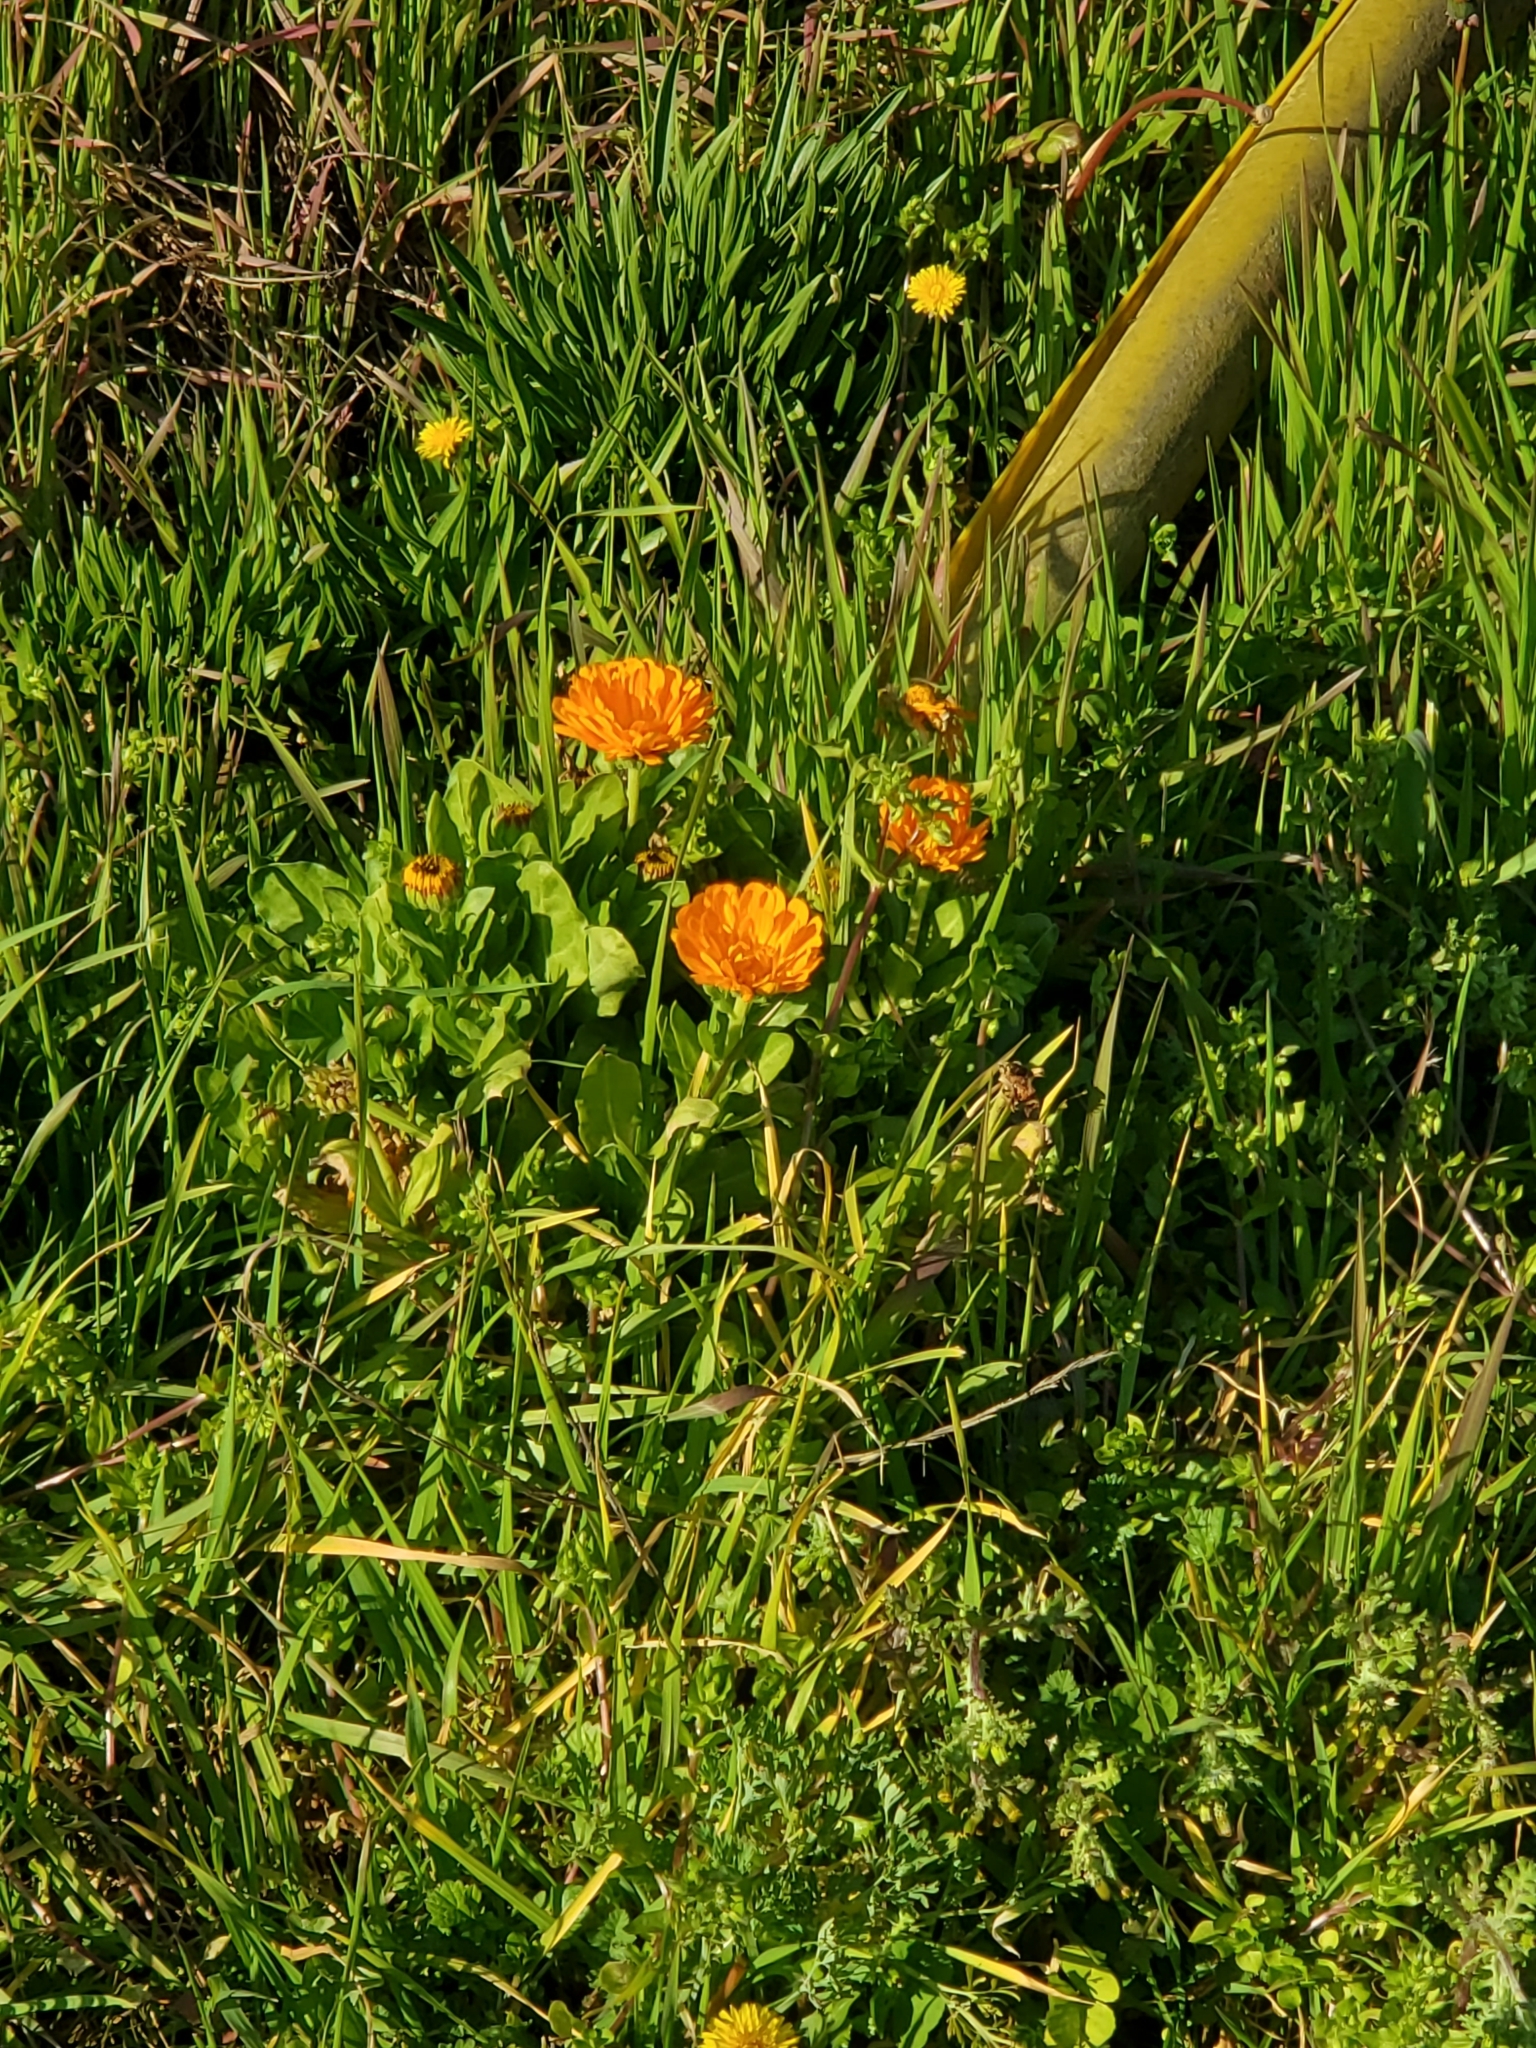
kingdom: Plantae
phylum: Tracheophyta
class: Magnoliopsida
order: Asterales
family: Asteraceae
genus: Calendula
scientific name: Calendula arvensis
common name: Field marigold
